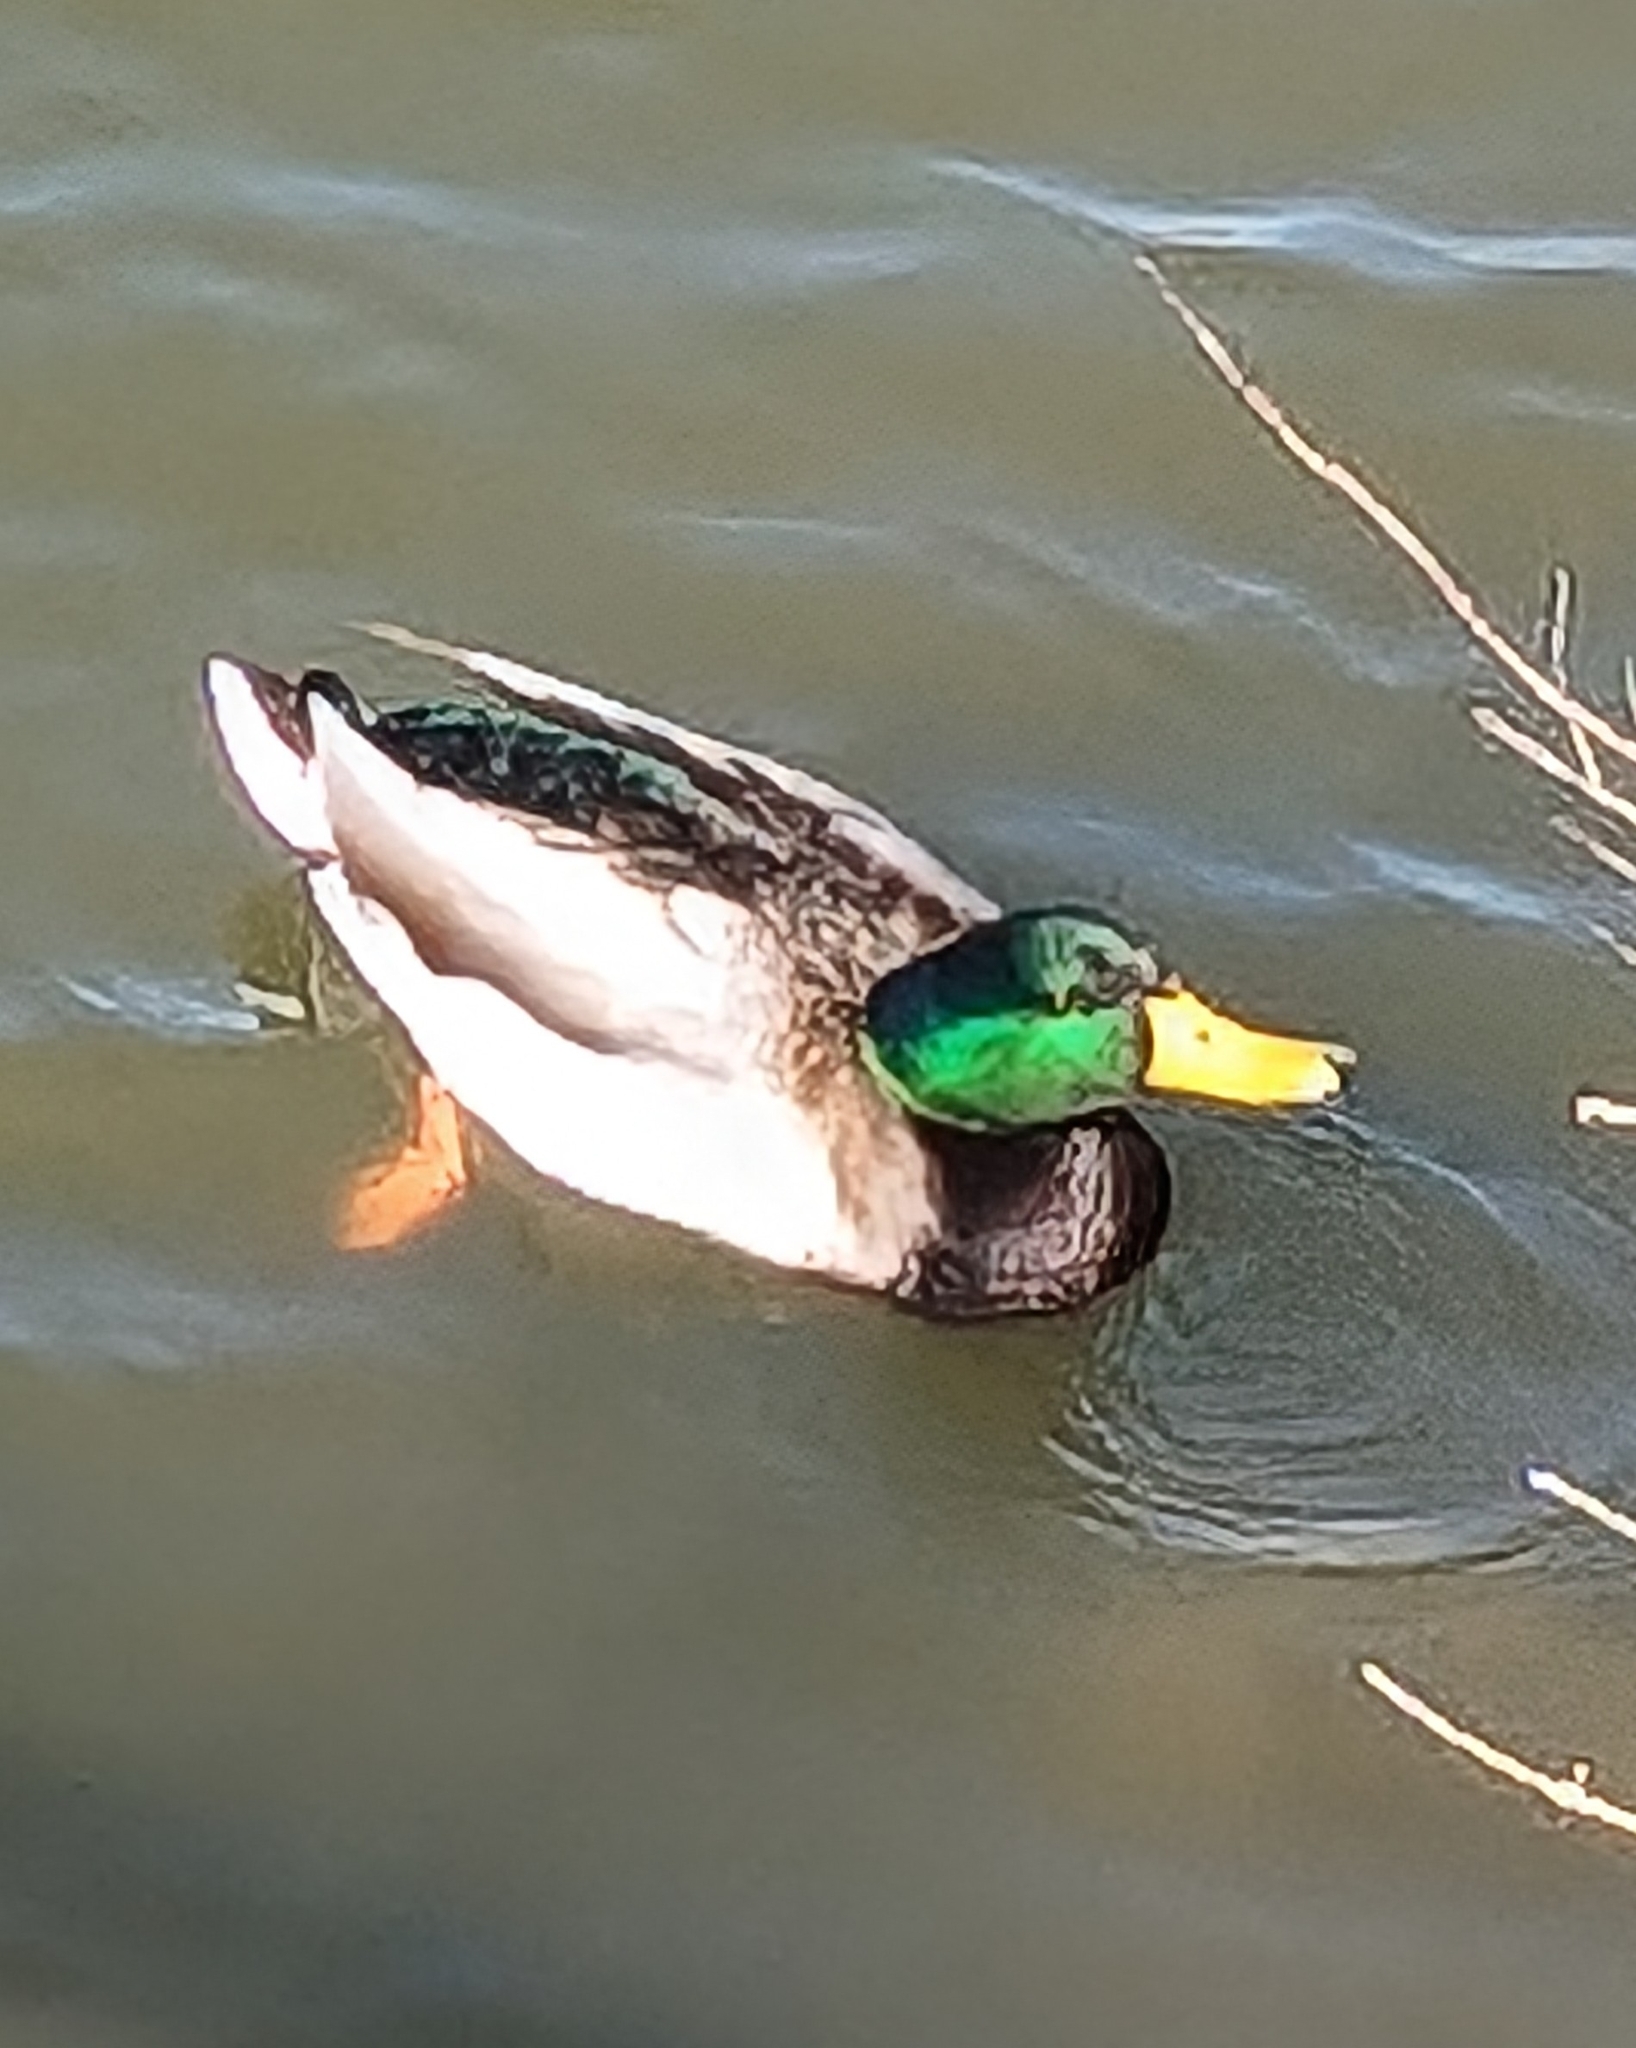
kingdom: Animalia
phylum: Chordata
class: Aves
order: Anseriformes
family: Anatidae
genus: Anas
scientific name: Anas platyrhynchos
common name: Mallard
